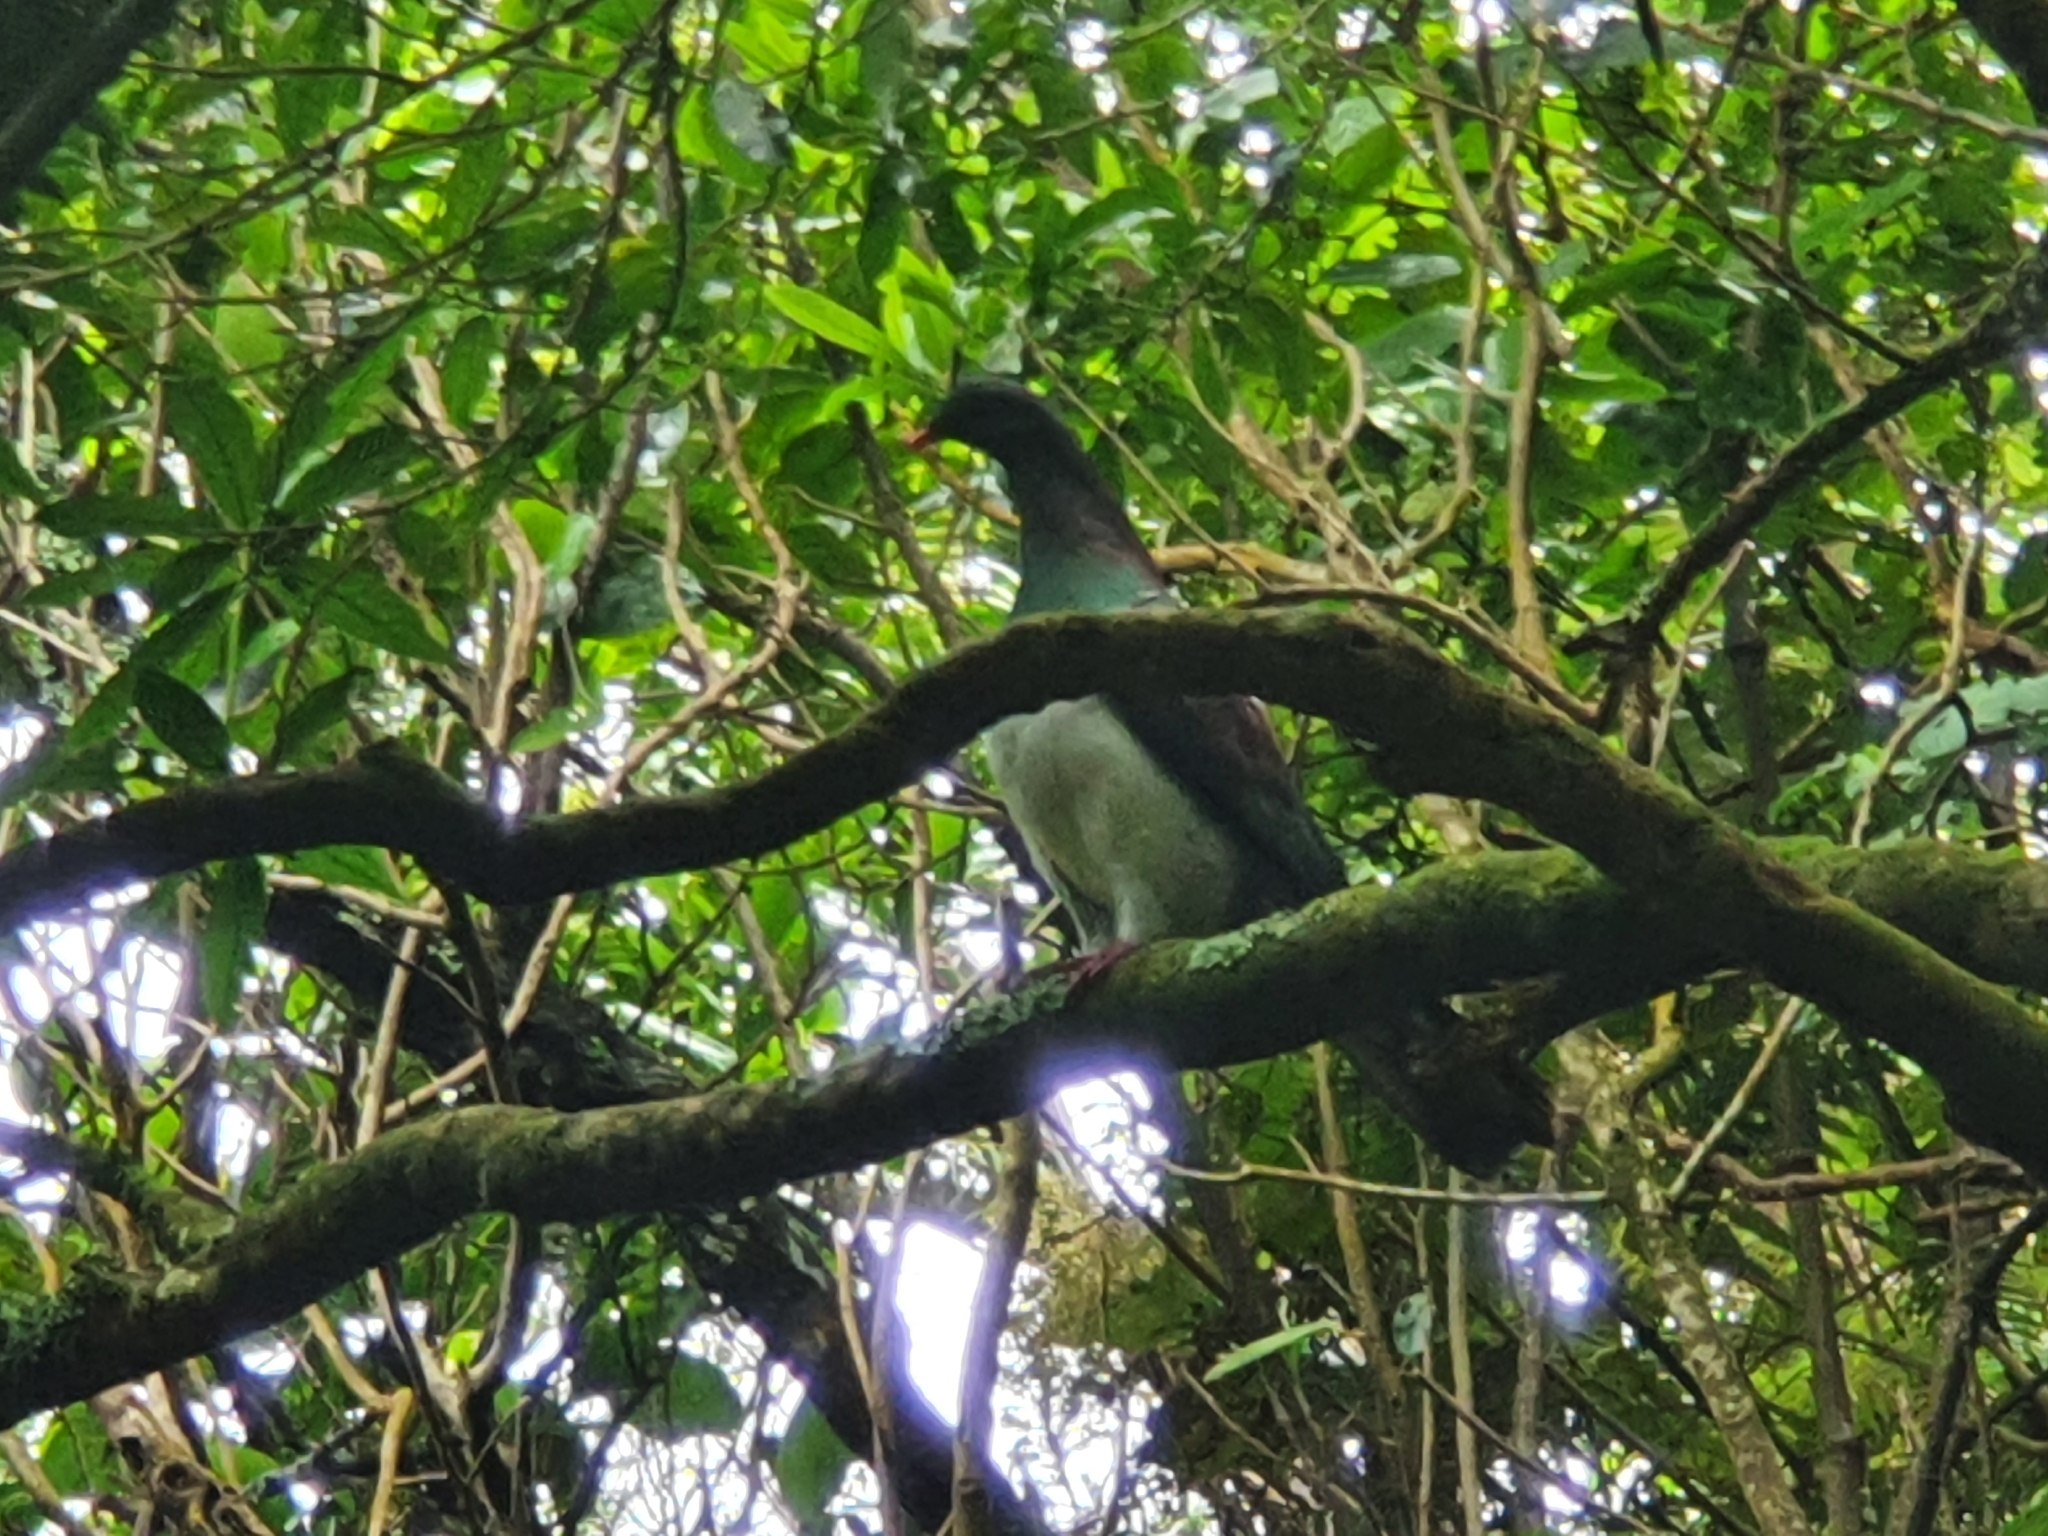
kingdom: Animalia
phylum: Chordata
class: Aves
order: Columbiformes
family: Columbidae
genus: Hemiphaga
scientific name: Hemiphaga novaeseelandiae
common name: New zealand pigeon
